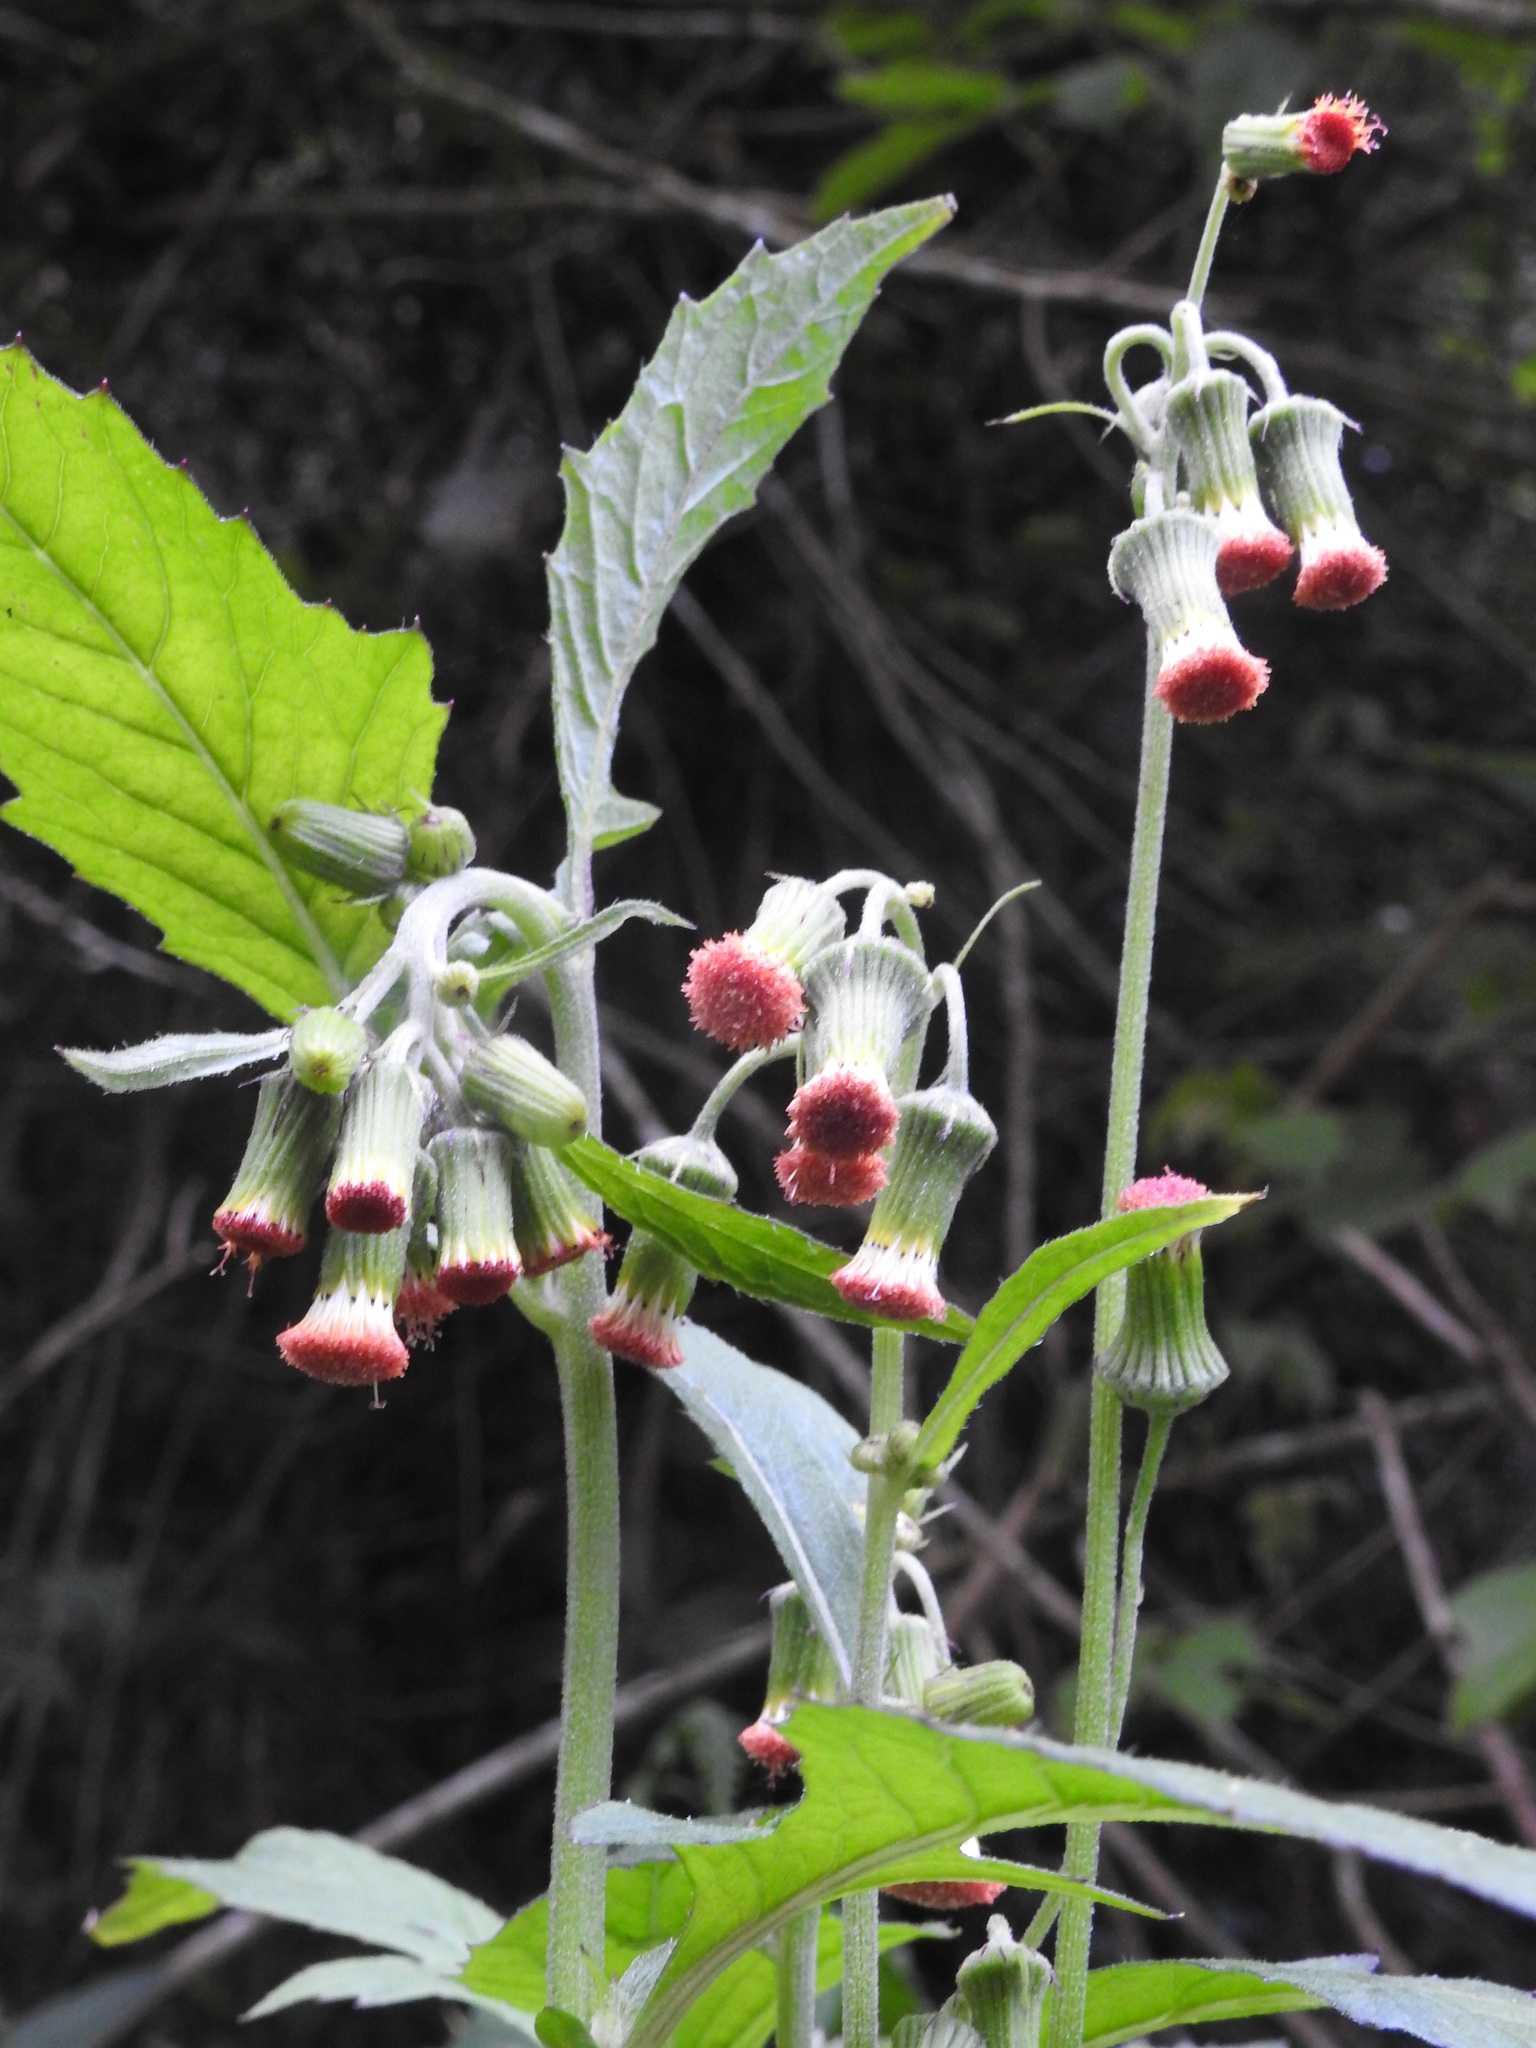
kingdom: Plantae
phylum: Tracheophyta
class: Magnoliopsida
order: Asterales
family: Asteraceae
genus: Crassocephalum
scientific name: Crassocephalum crepidioides
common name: Redflower ragleaf
